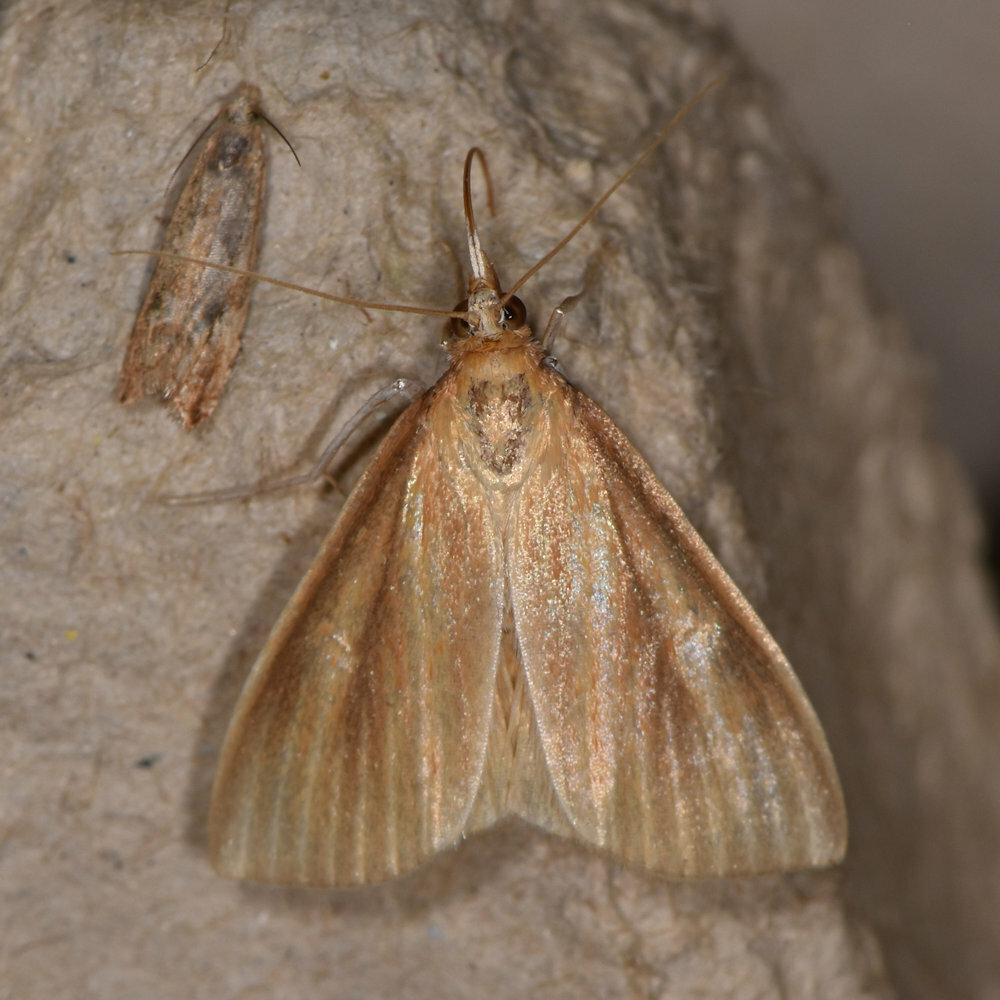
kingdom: Animalia
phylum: Arthropoda
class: Insecta
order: Lepidoptera
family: Crambidae
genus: Nascia
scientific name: Nascia acutellus
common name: Streaked orange moth
